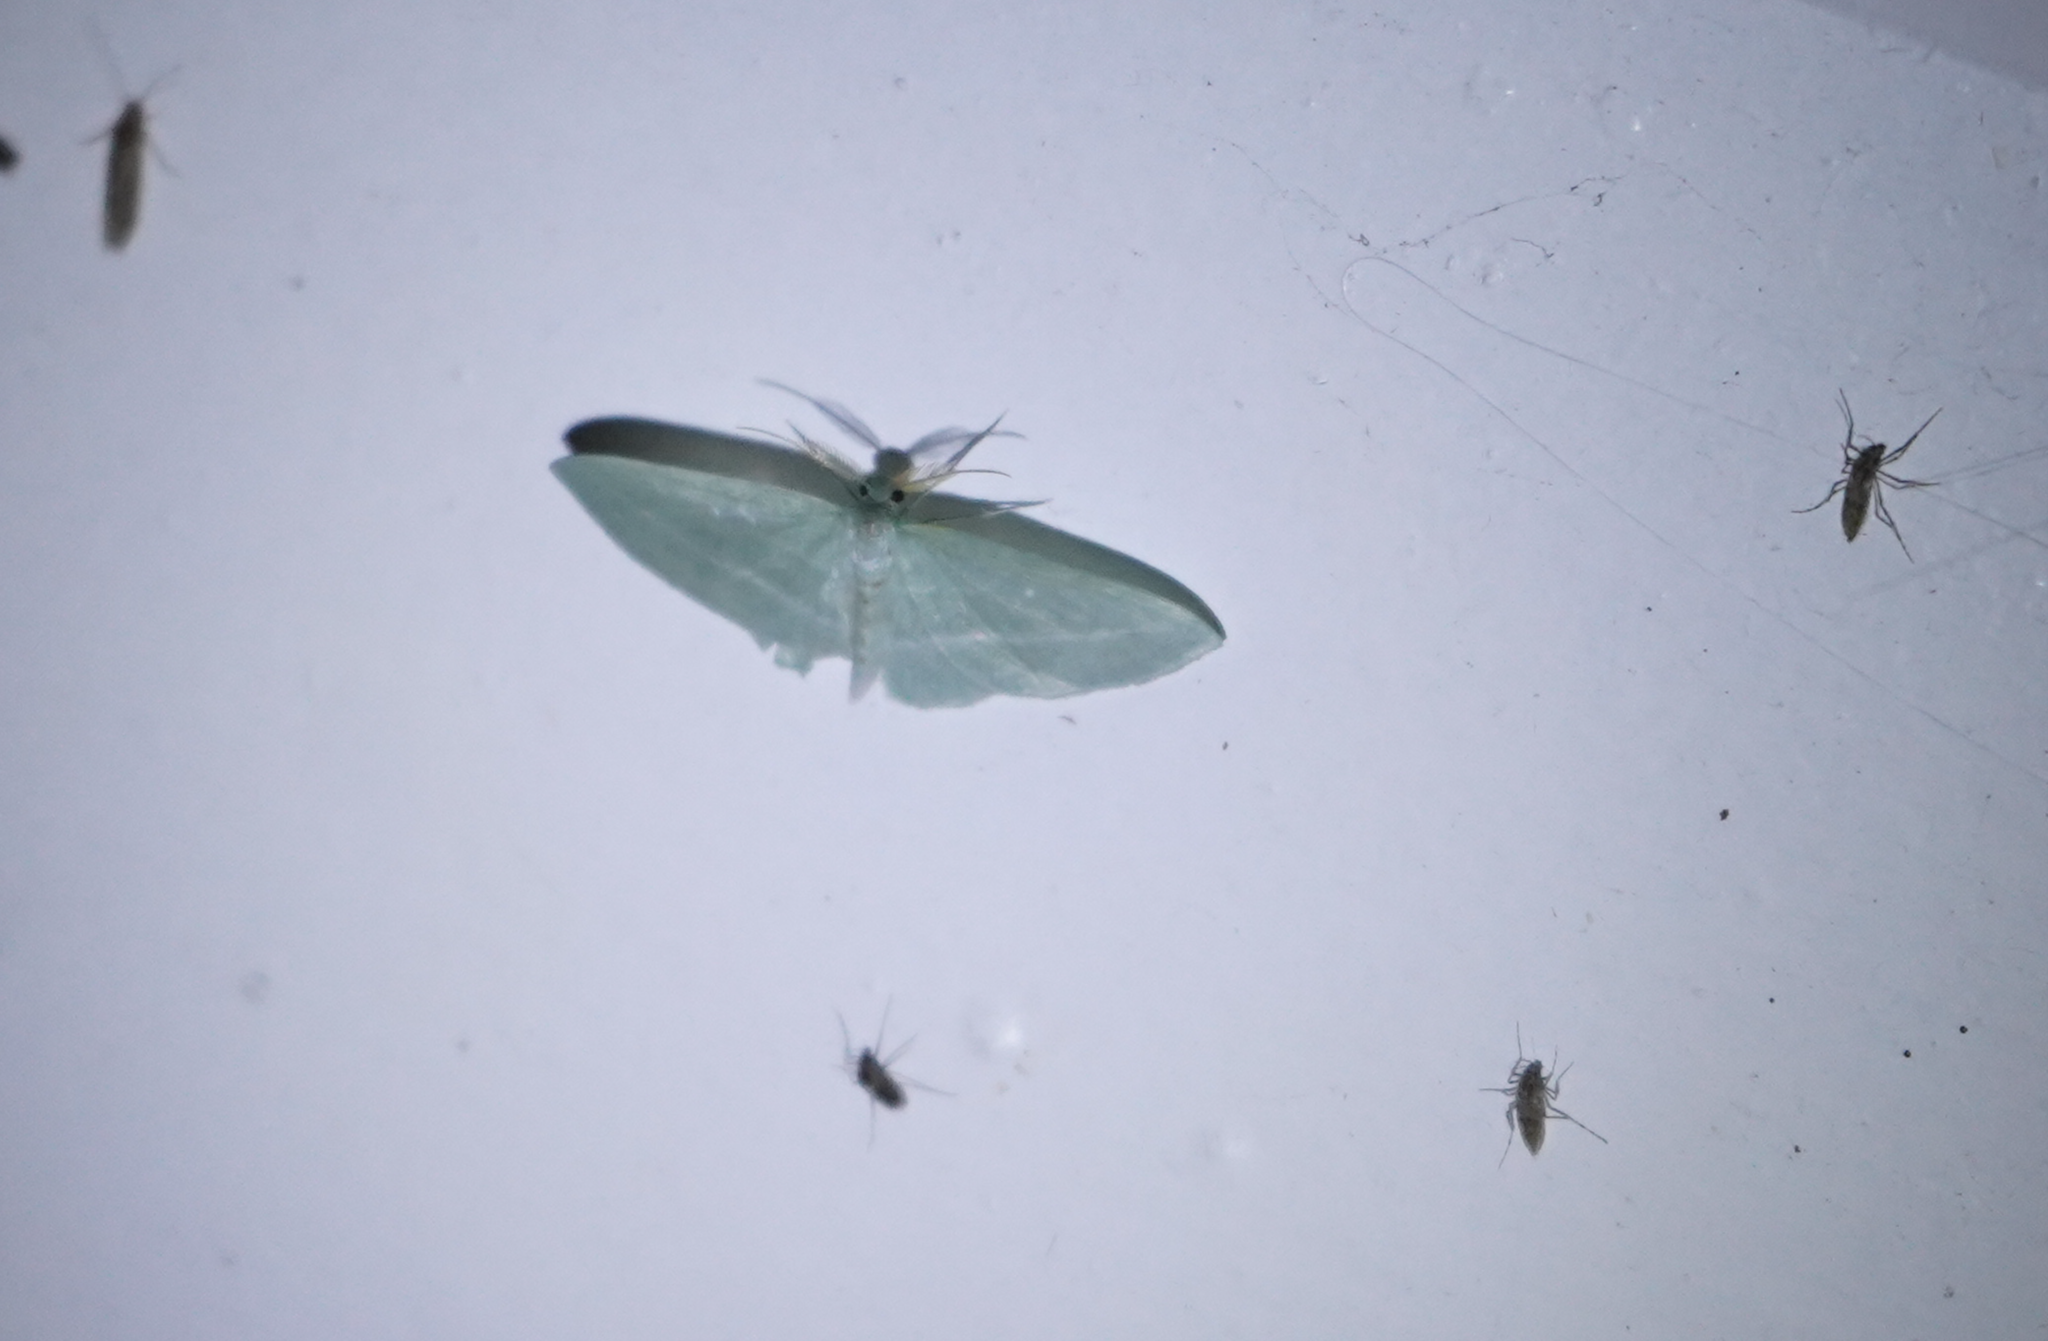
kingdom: Animalia
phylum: Arthropoda
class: Insecta
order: Lepidoptera
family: Geometridae
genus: Dyspteris
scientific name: Dyspteris abortivaria
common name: Bad-wing
